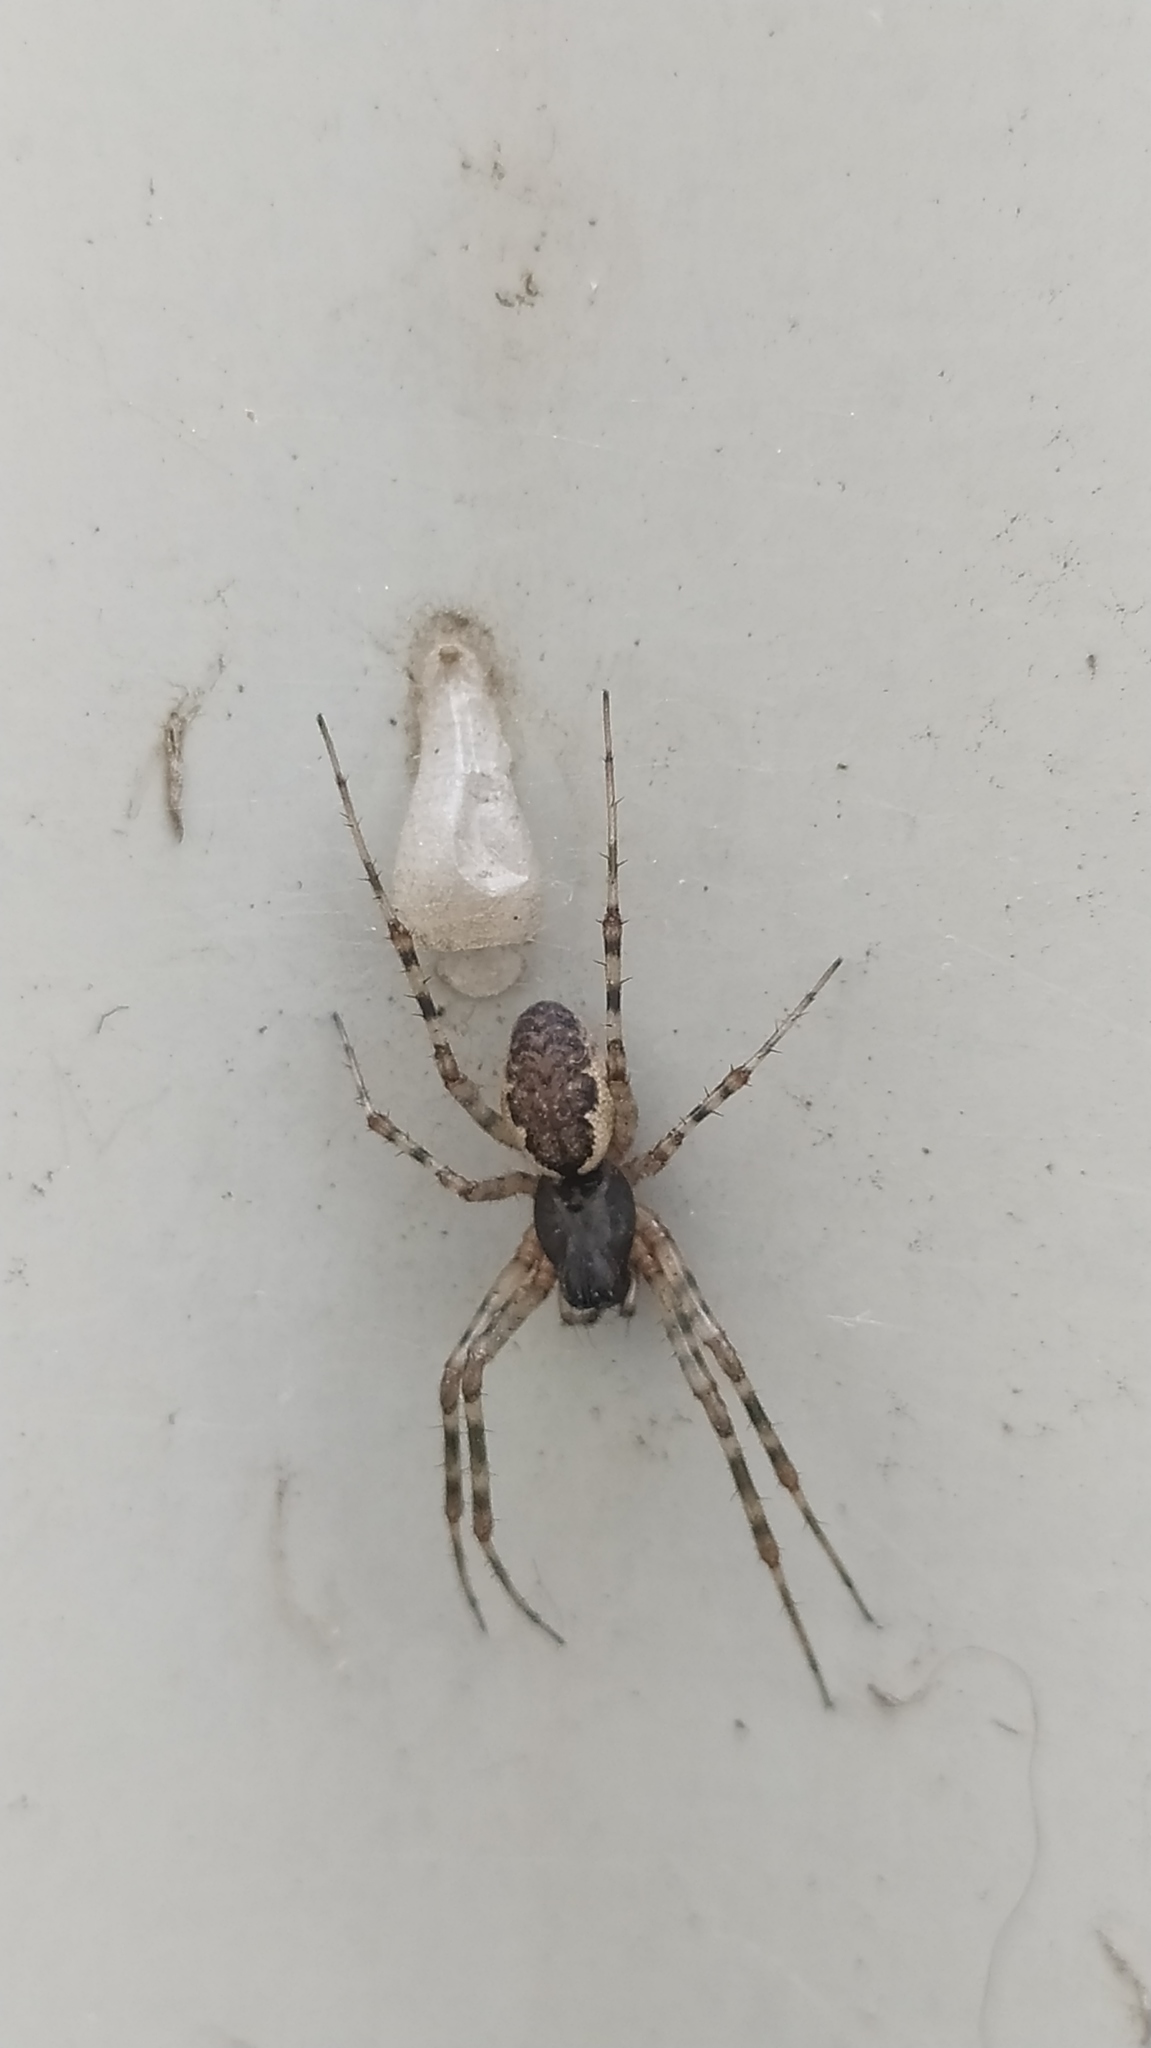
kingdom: Animalia
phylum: Arthropoda
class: Arachnida
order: Araneae
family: Linyphiidae
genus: Neriene
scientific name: Neriene montana
